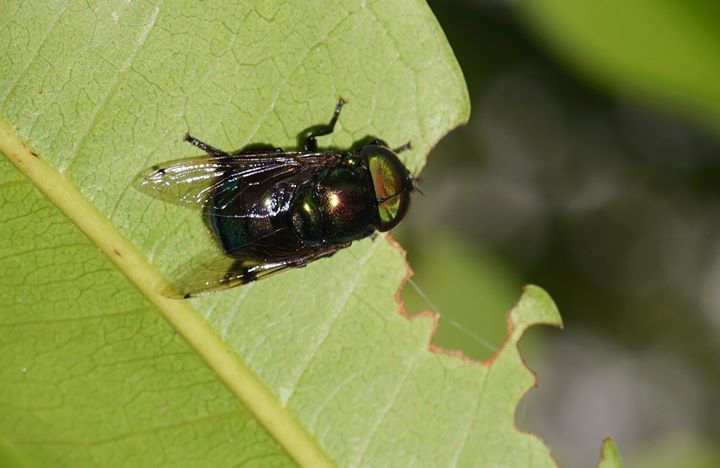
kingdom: Animalia
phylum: Arthropoda
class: Insecta
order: Diptera
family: Syrphidae
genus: Ornidia
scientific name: Ornidia obesa
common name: Syrphid fly
